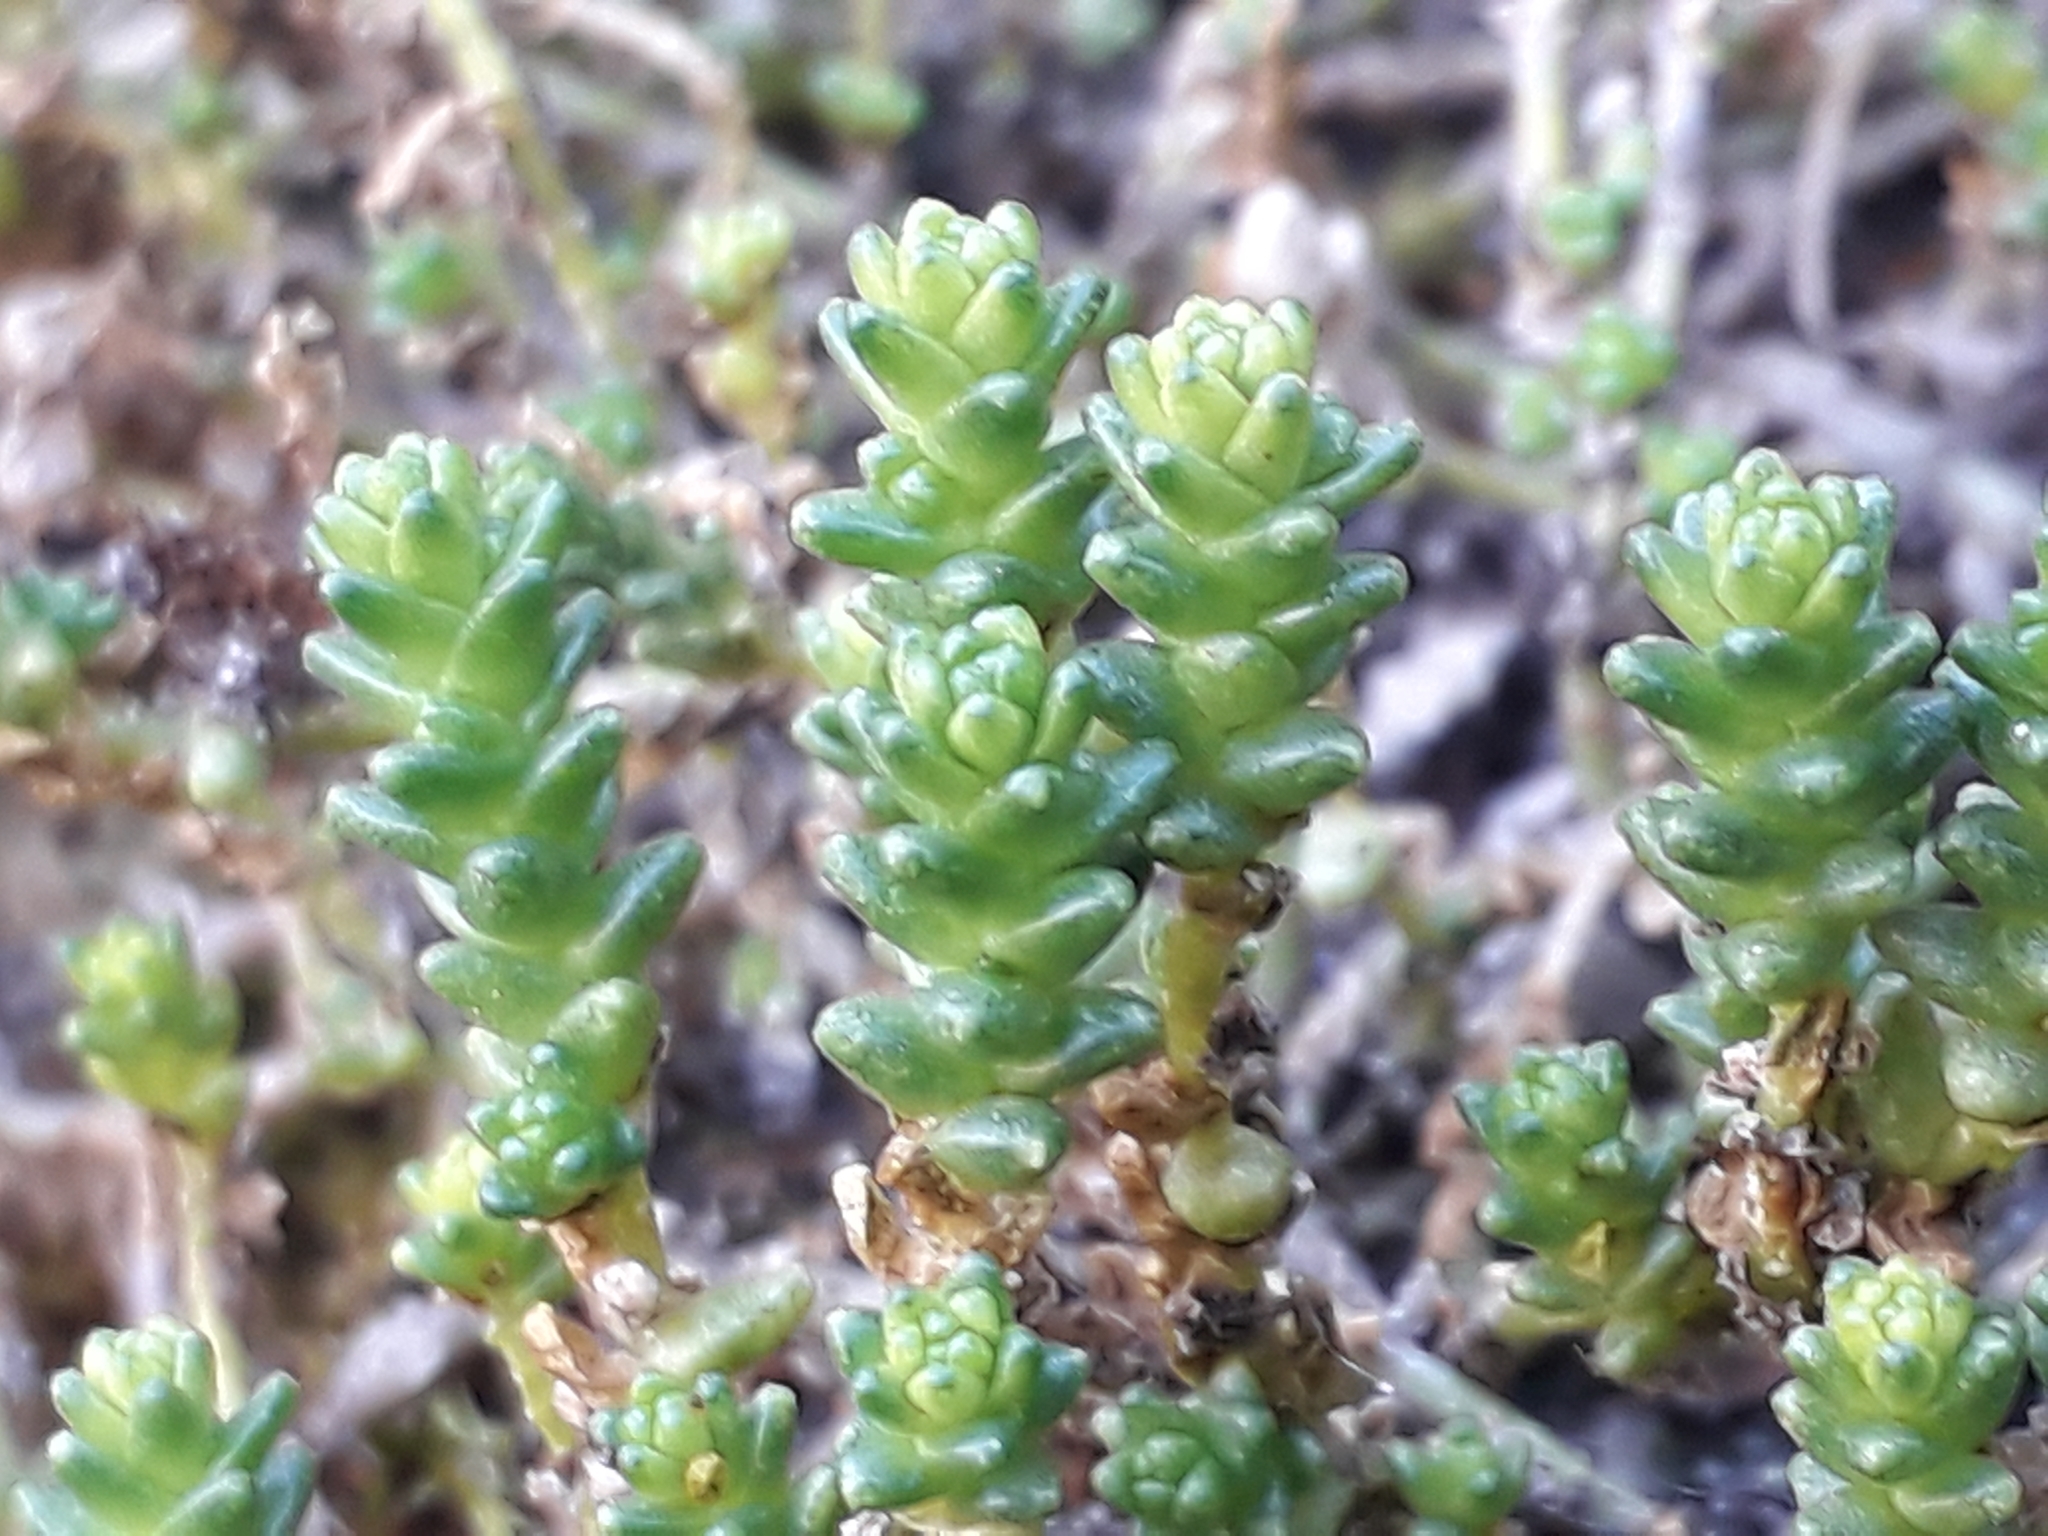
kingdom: Plantae
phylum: Tracheophyta
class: Magnoliopsida
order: Saxifragales
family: Crassulaceae
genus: Sedum
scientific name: Sedum acre
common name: Biting stonecrop
